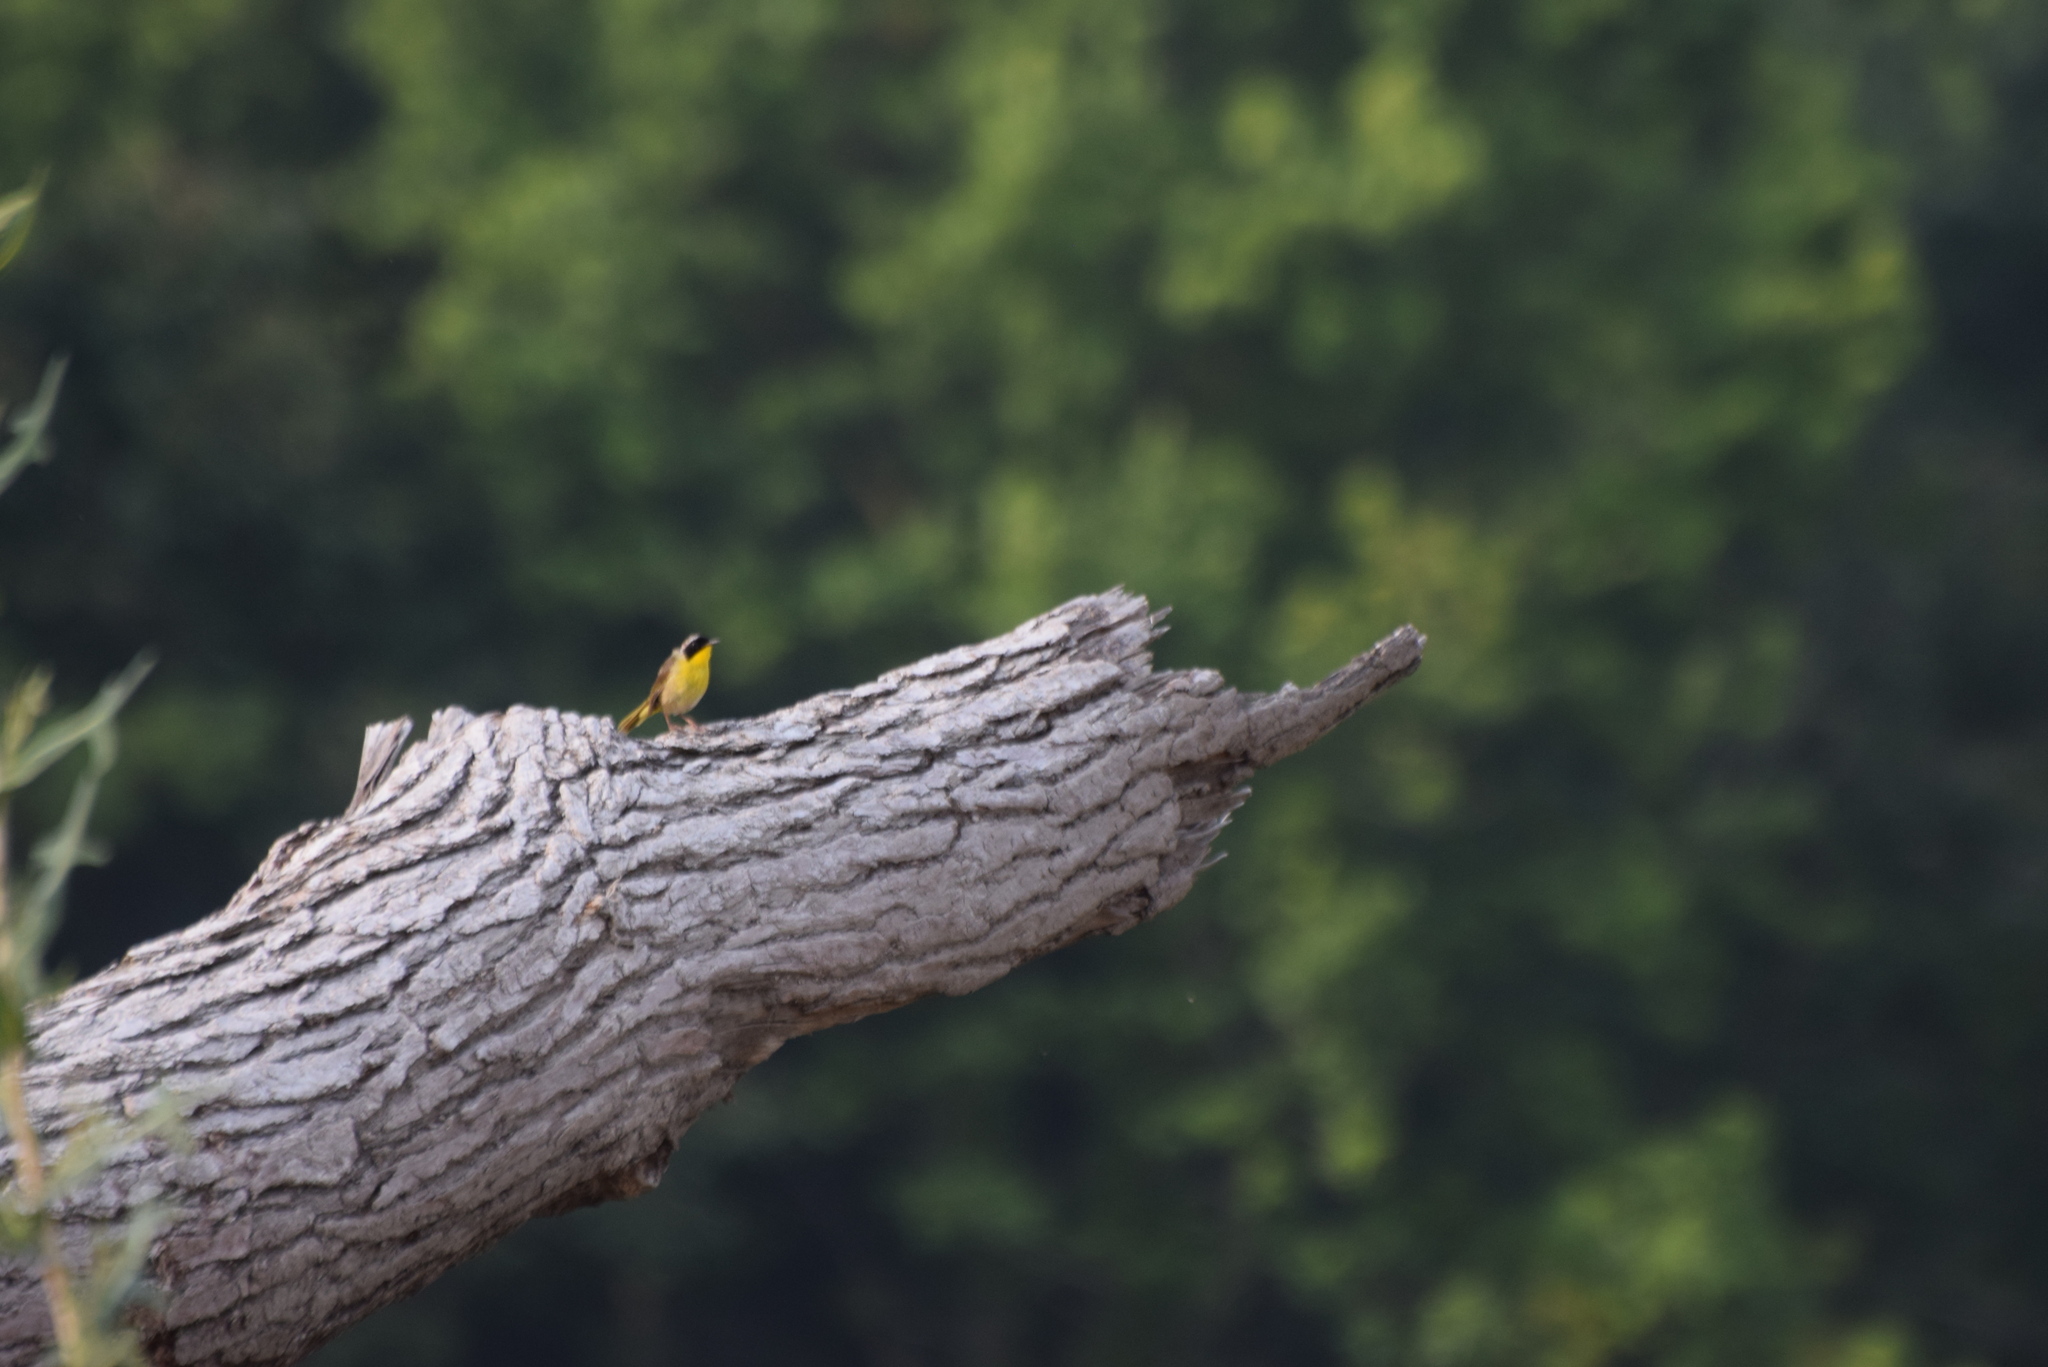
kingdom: Animalia
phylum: Chordata
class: Aves
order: Passeriformes
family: Parulidae
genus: Geothlypis
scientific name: Geothlypis trichas
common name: Common yellowthroat
